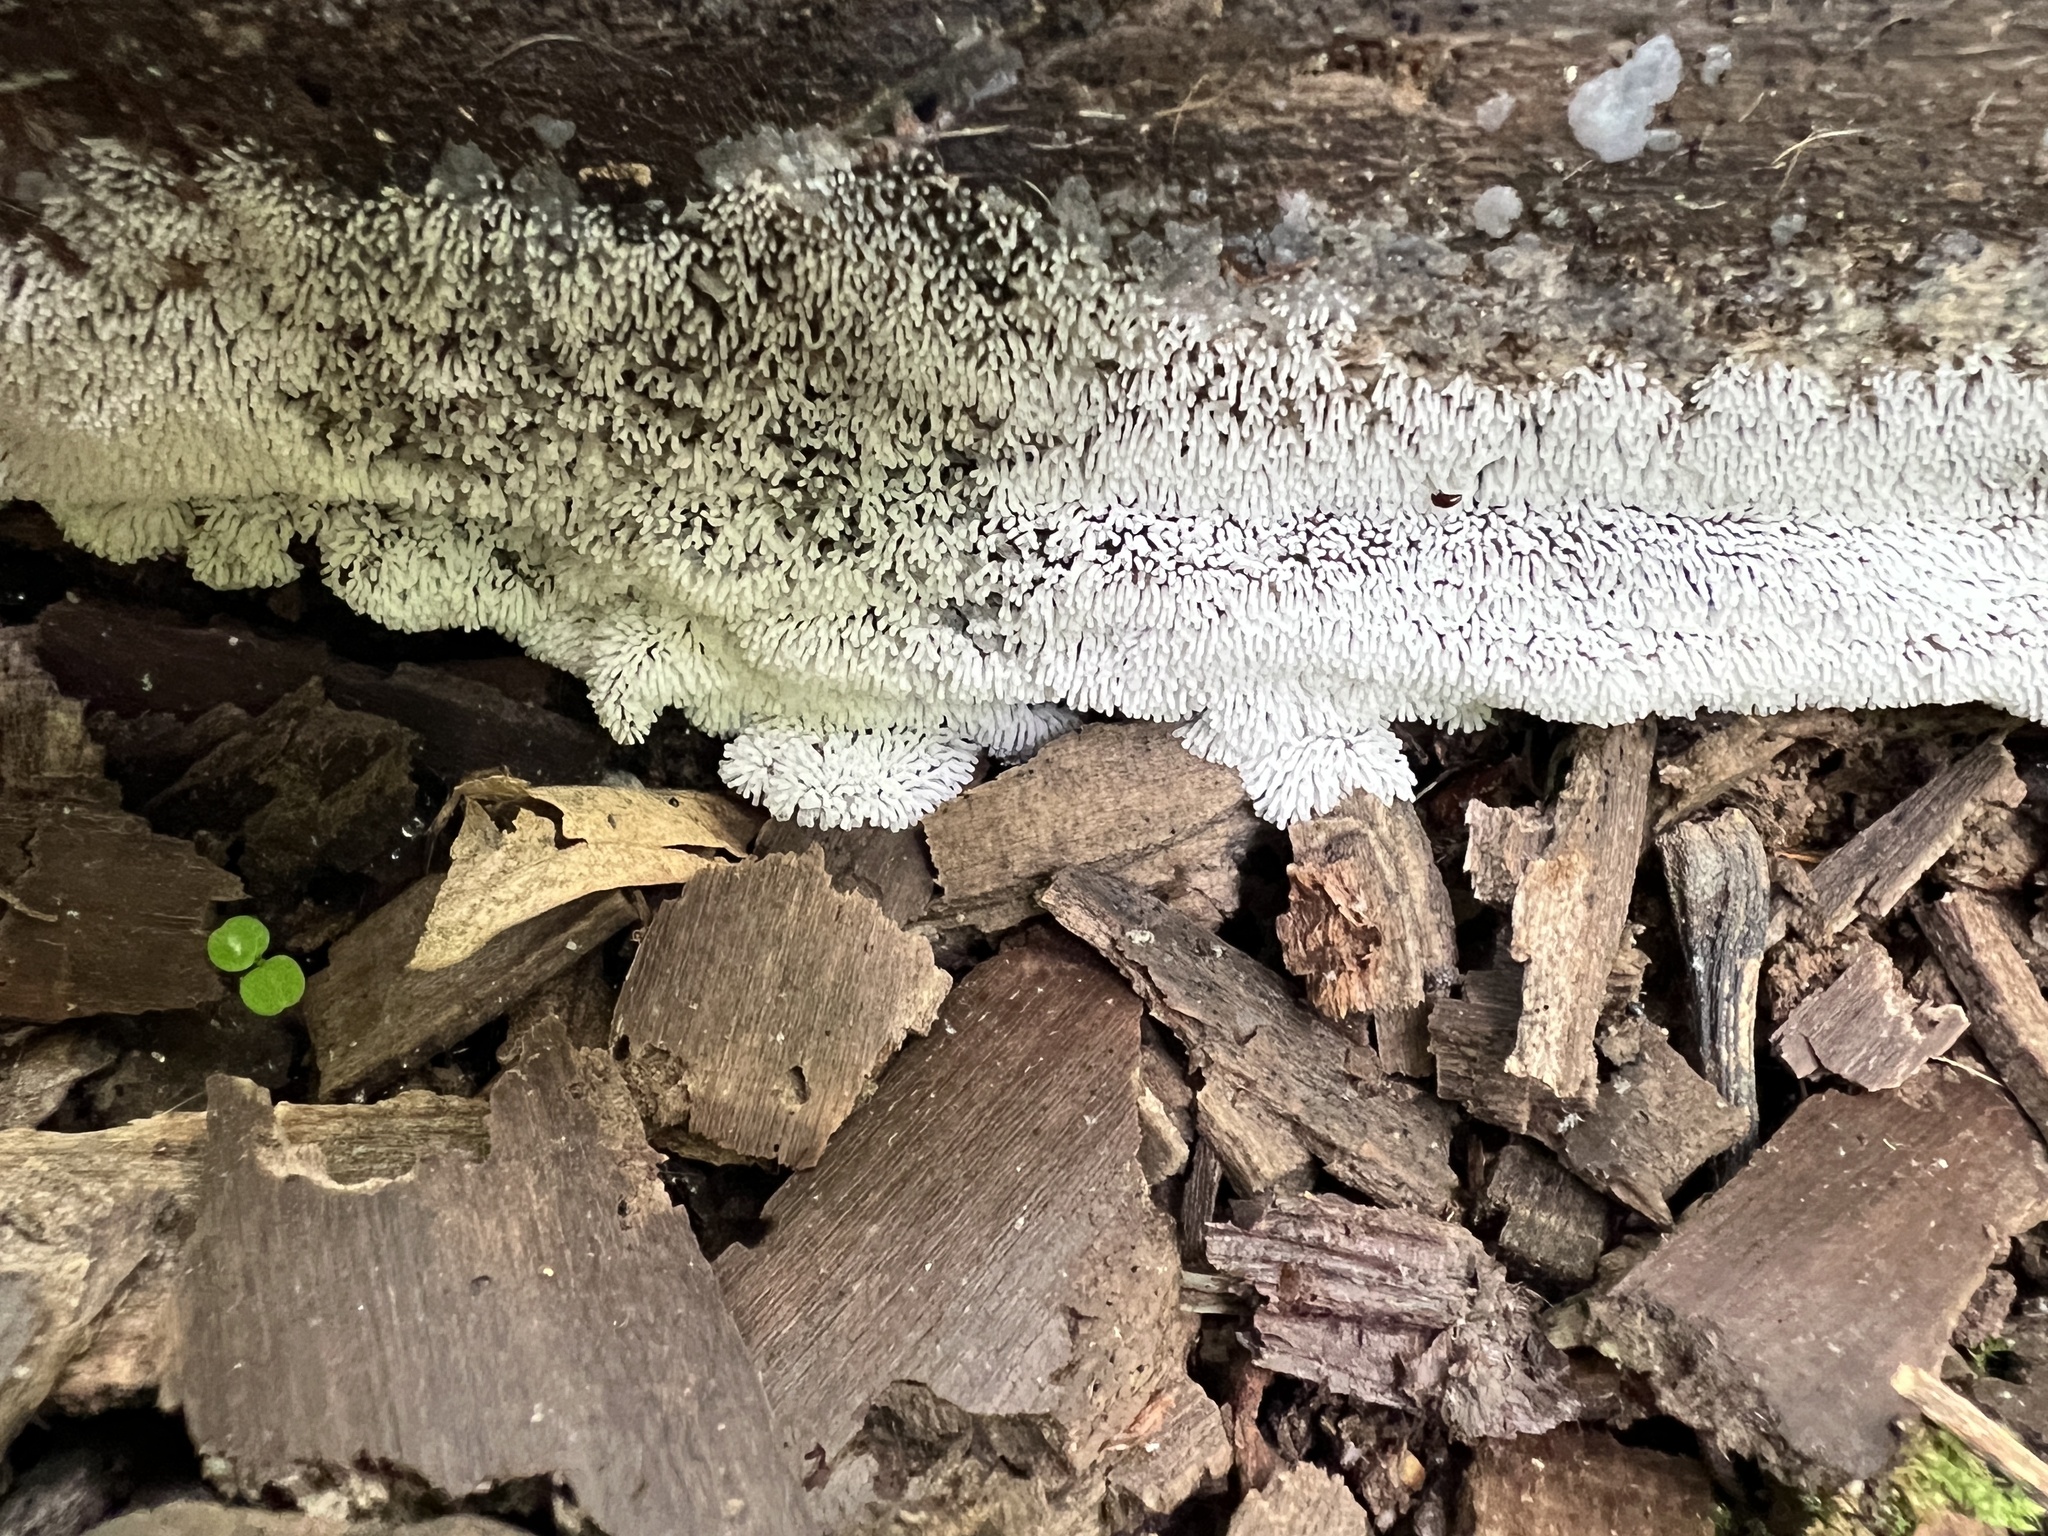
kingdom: Protozoa
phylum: Mycetozoa
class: Protosteliomycetes
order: Ceratiomyxales
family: Ceratiomyxaceae
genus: Ceratiomyxa
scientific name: Ceratiomyxa fruticulosa
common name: Honeycomb coral slime mold
